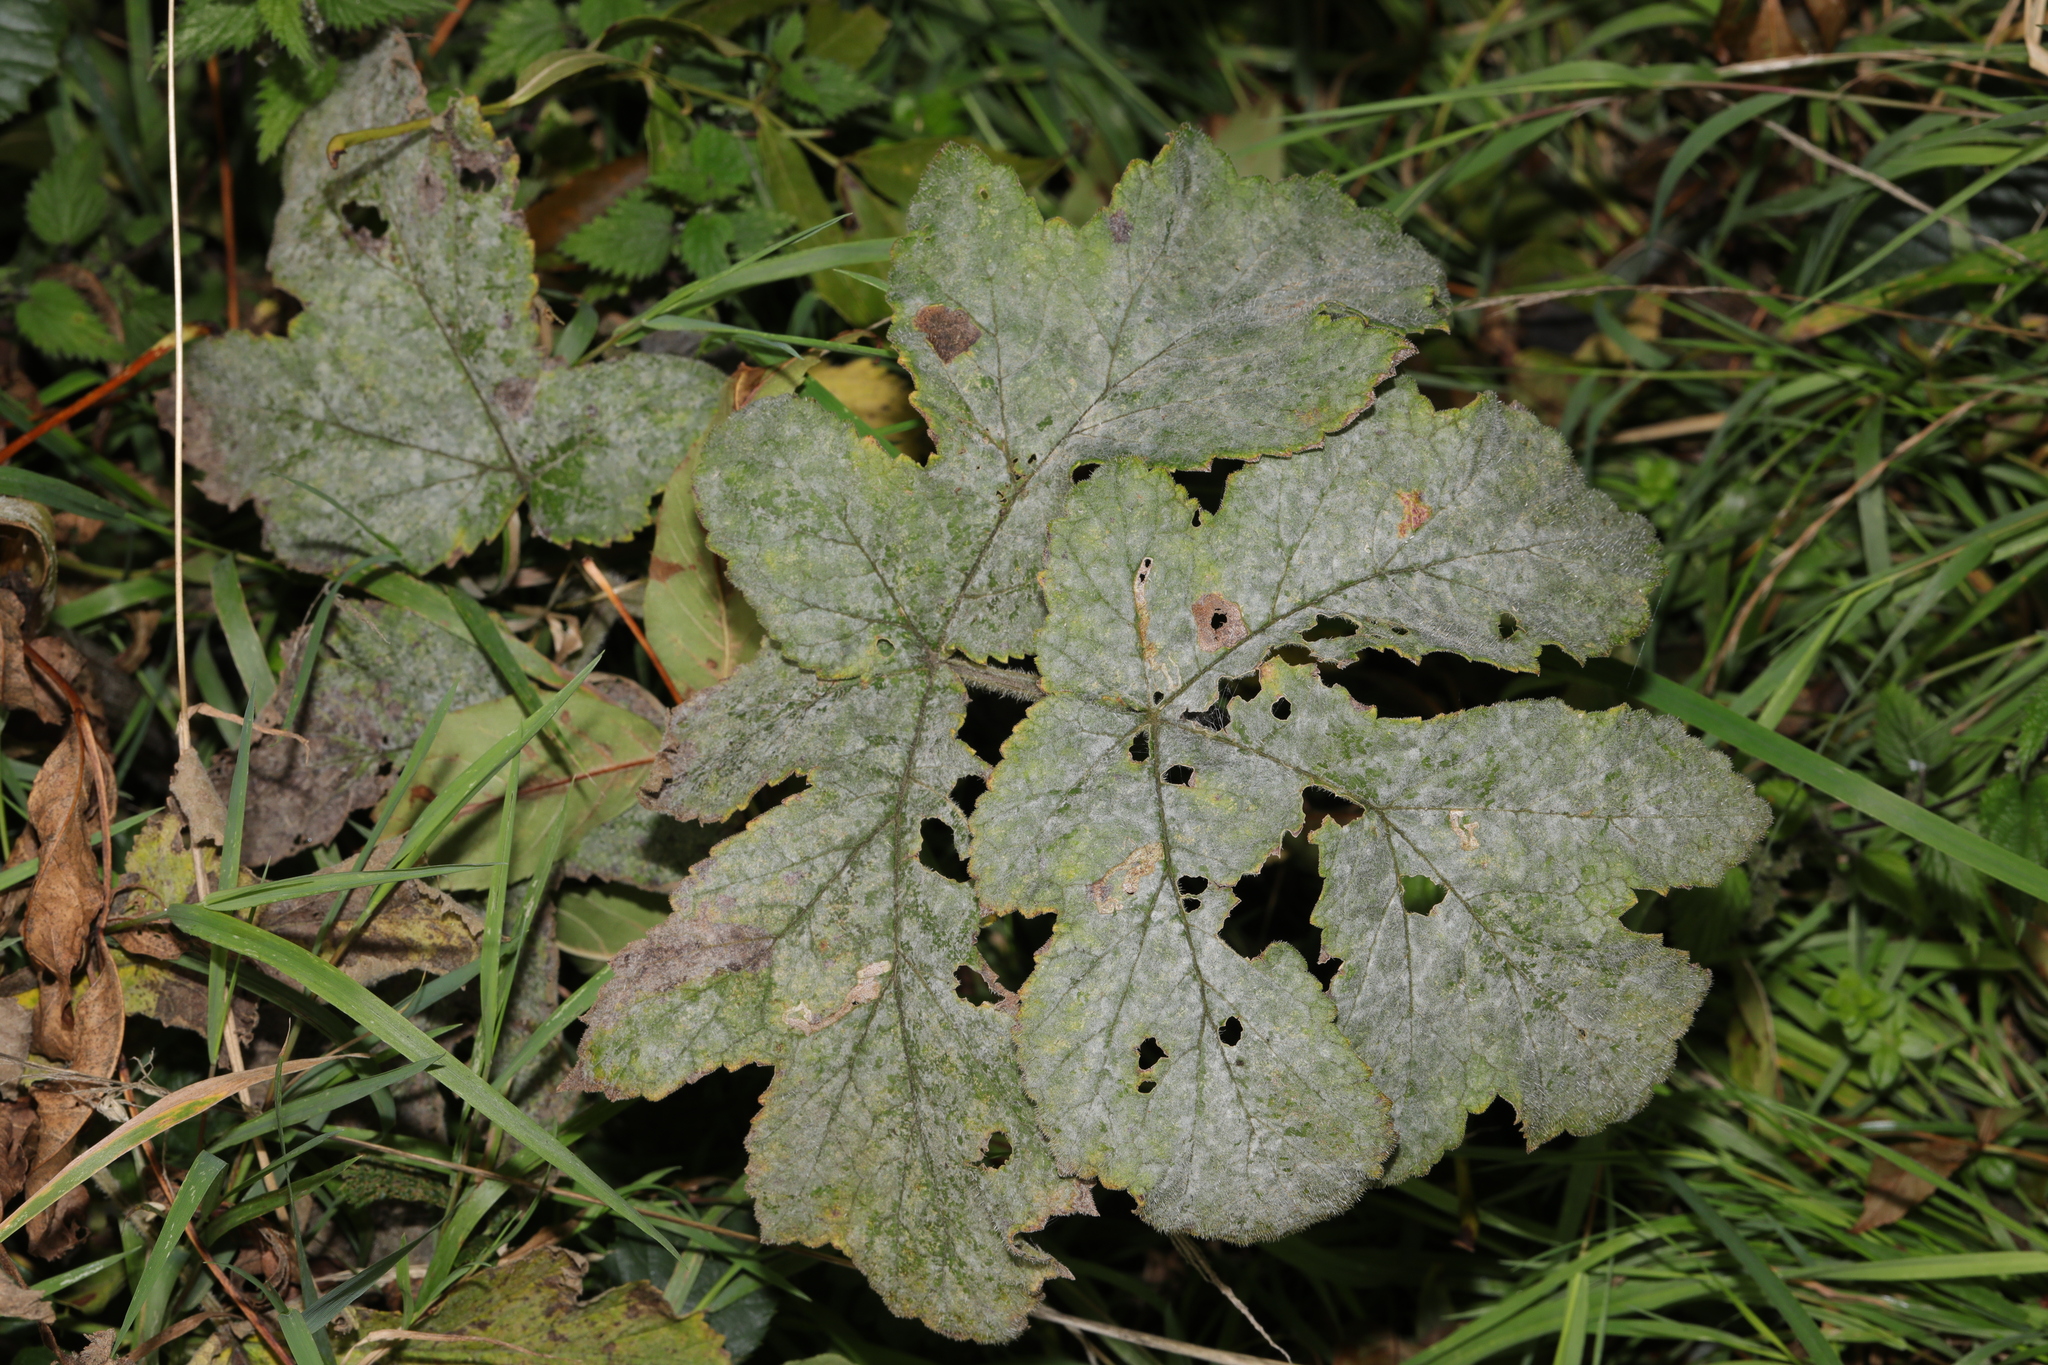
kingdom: Plantae
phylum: Tracheophyta
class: Magnoliopsida
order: Apiales
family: Apiaceae
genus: Heracleum
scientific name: Heracleum sphondylium
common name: Hogweed
